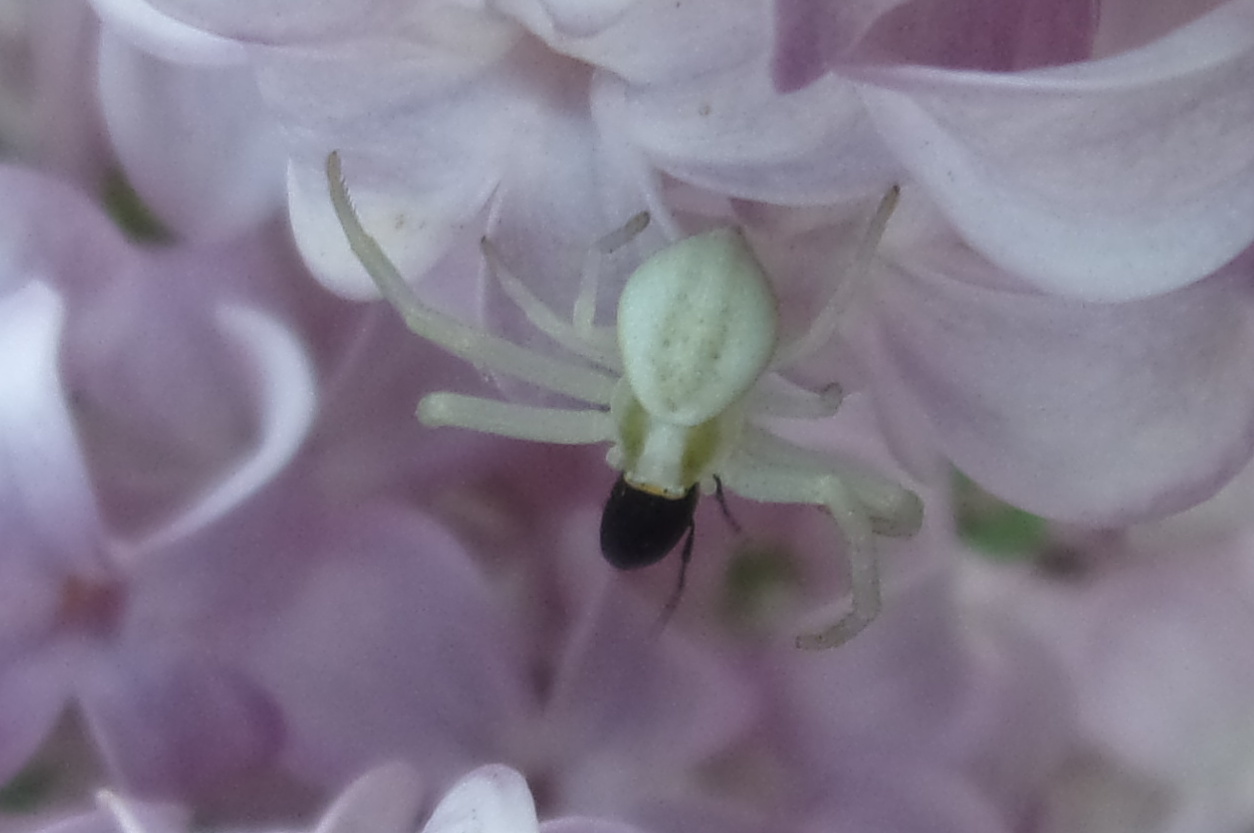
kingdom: Animalia
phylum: Arthropoda
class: Arachnida
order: Araneae
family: Thomisidae
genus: Misumena
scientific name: Misumena vatia
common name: Goldenrod crab spider
